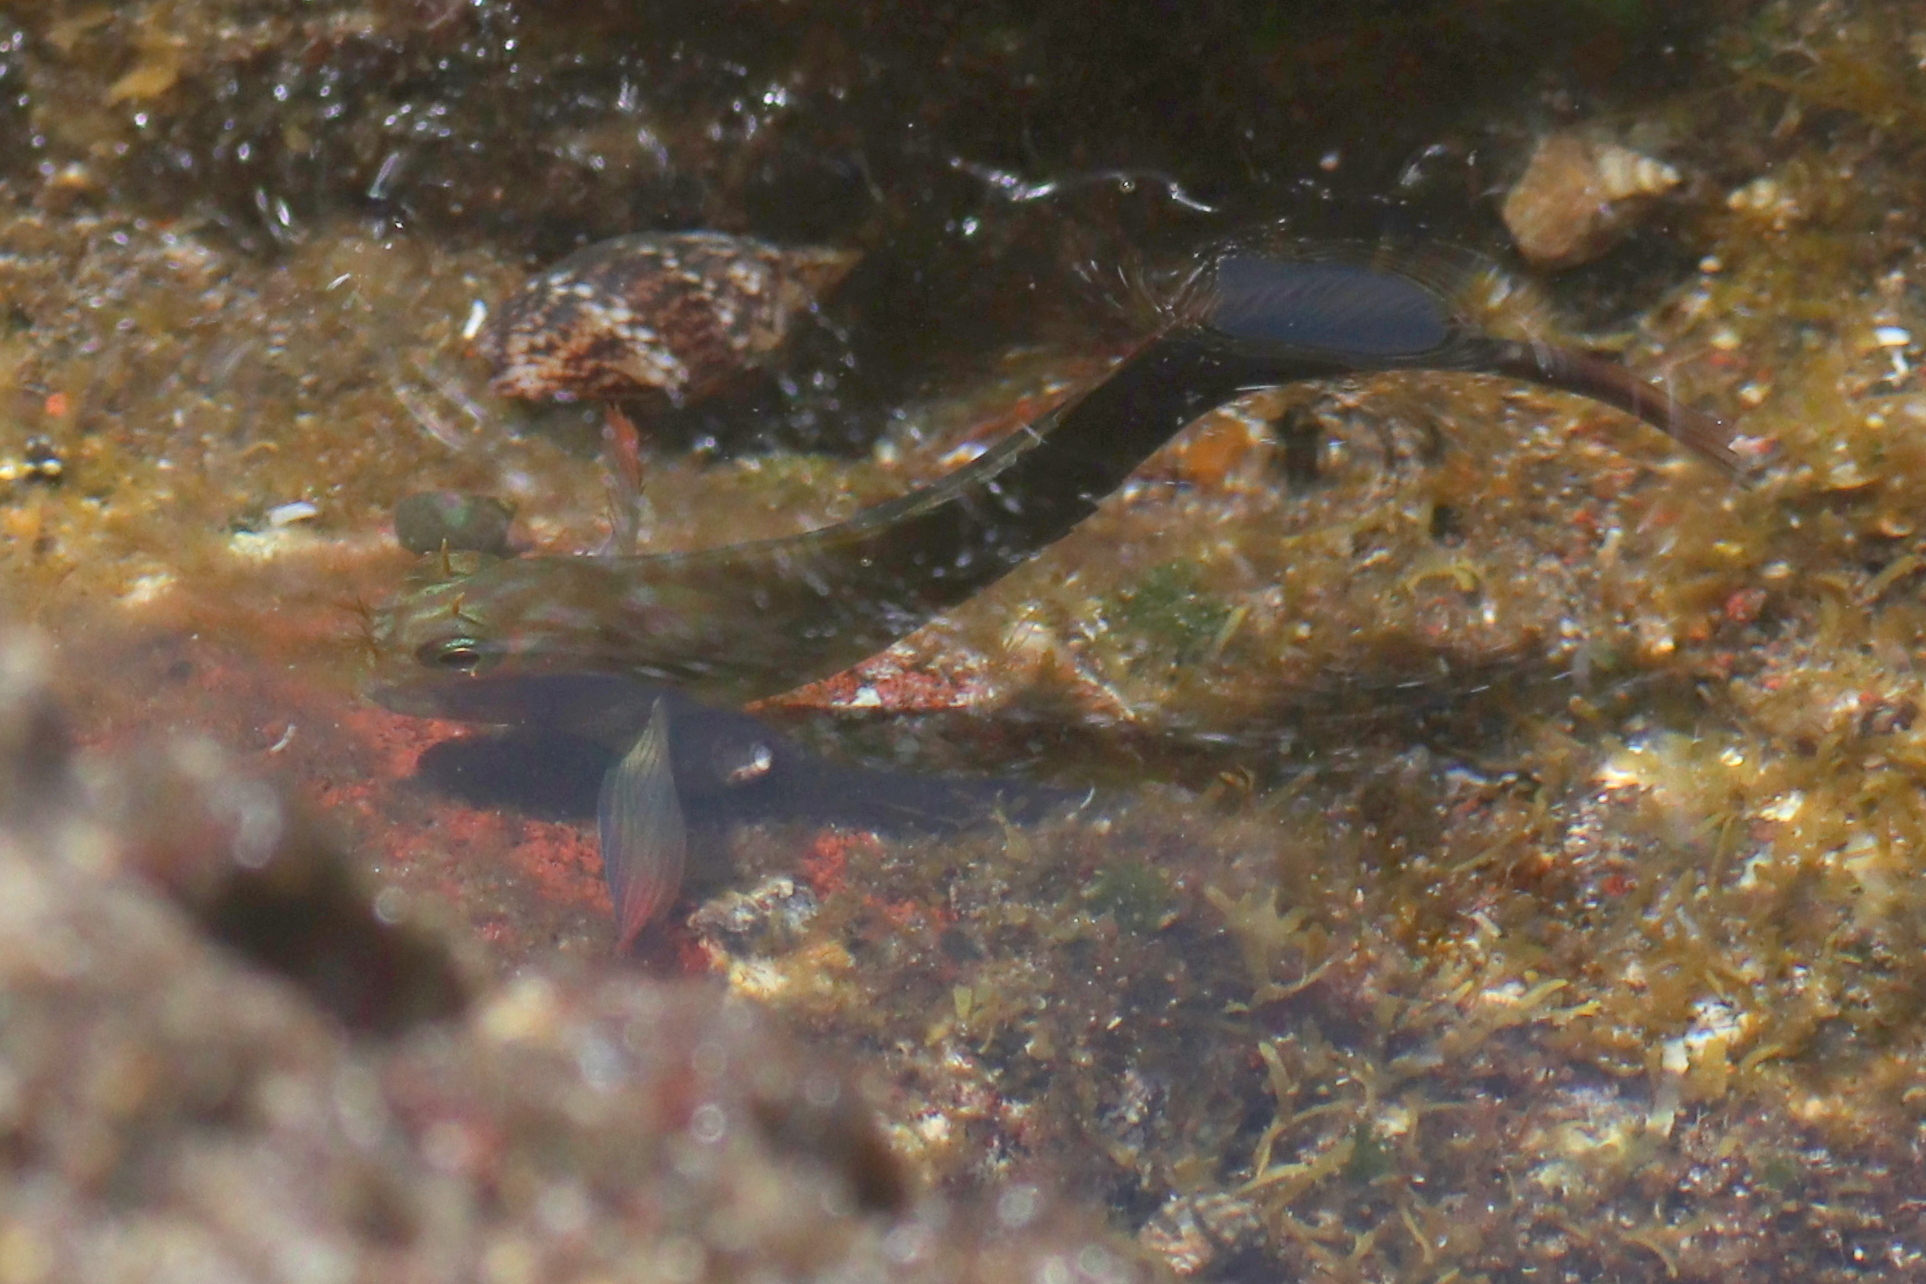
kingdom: Animalia
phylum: Chordata
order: Perciformes
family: Blenniidae
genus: Ophioblennius
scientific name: Ophioblennius atlanticus
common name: Redlip blenny
